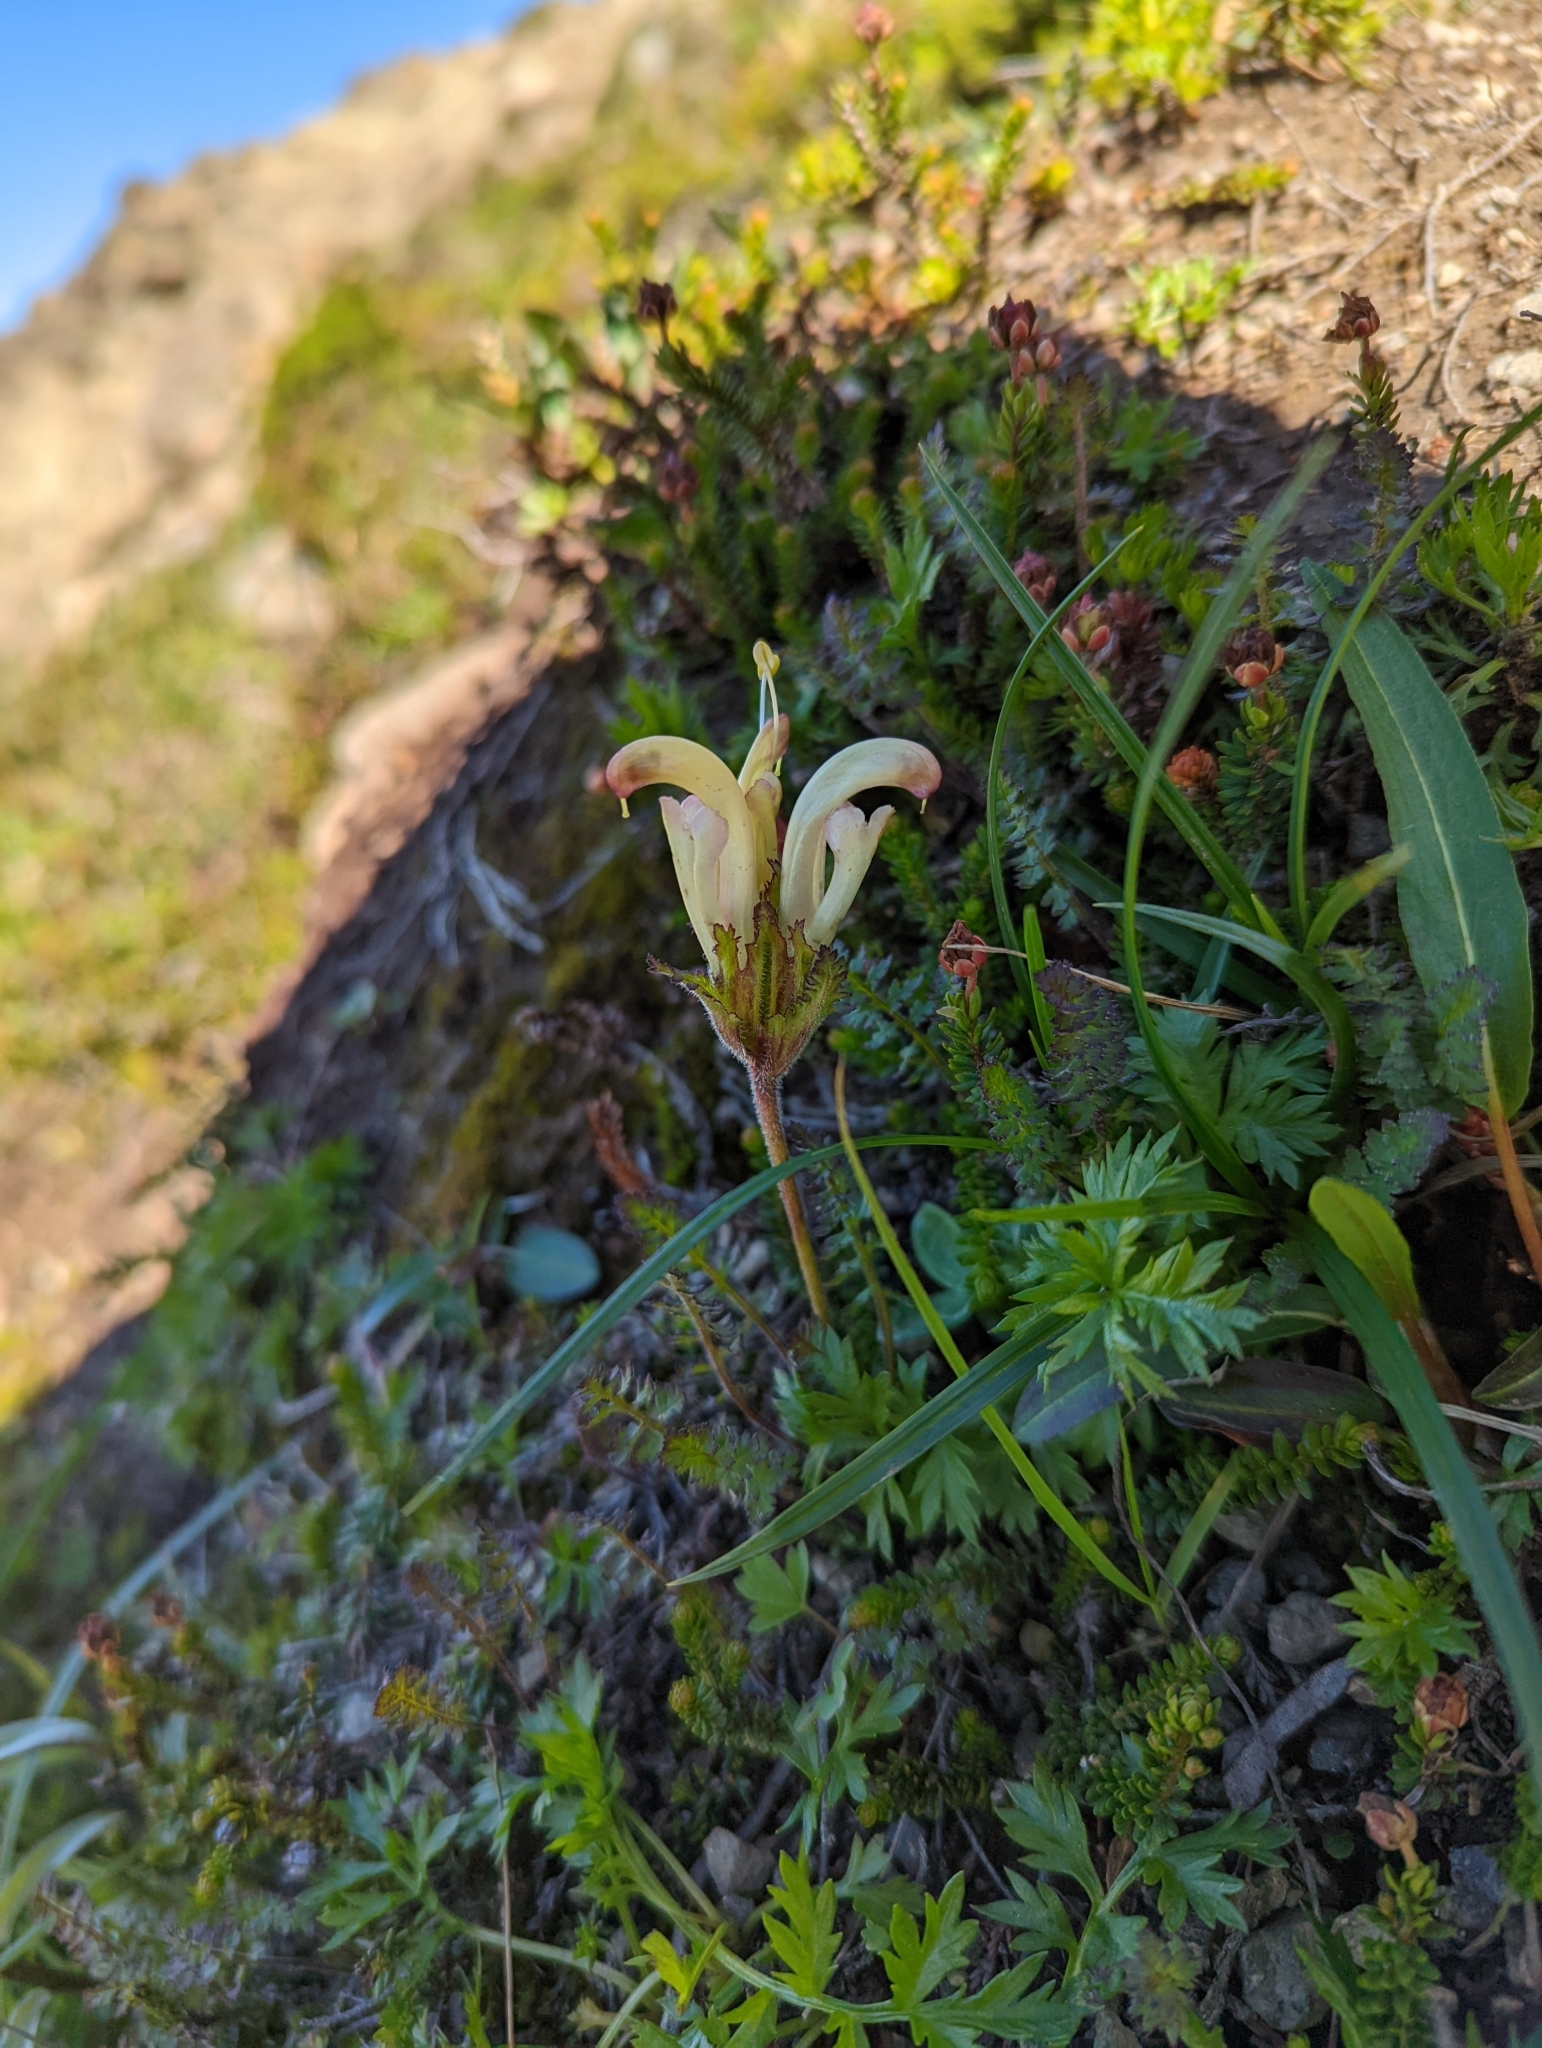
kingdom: Plantae
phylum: Tracheophyta
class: Magnoliopsida
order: Lamiales
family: Orobanchaceae
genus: Pedicularis
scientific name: Pedicularis capitata
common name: Capitate lousewort
